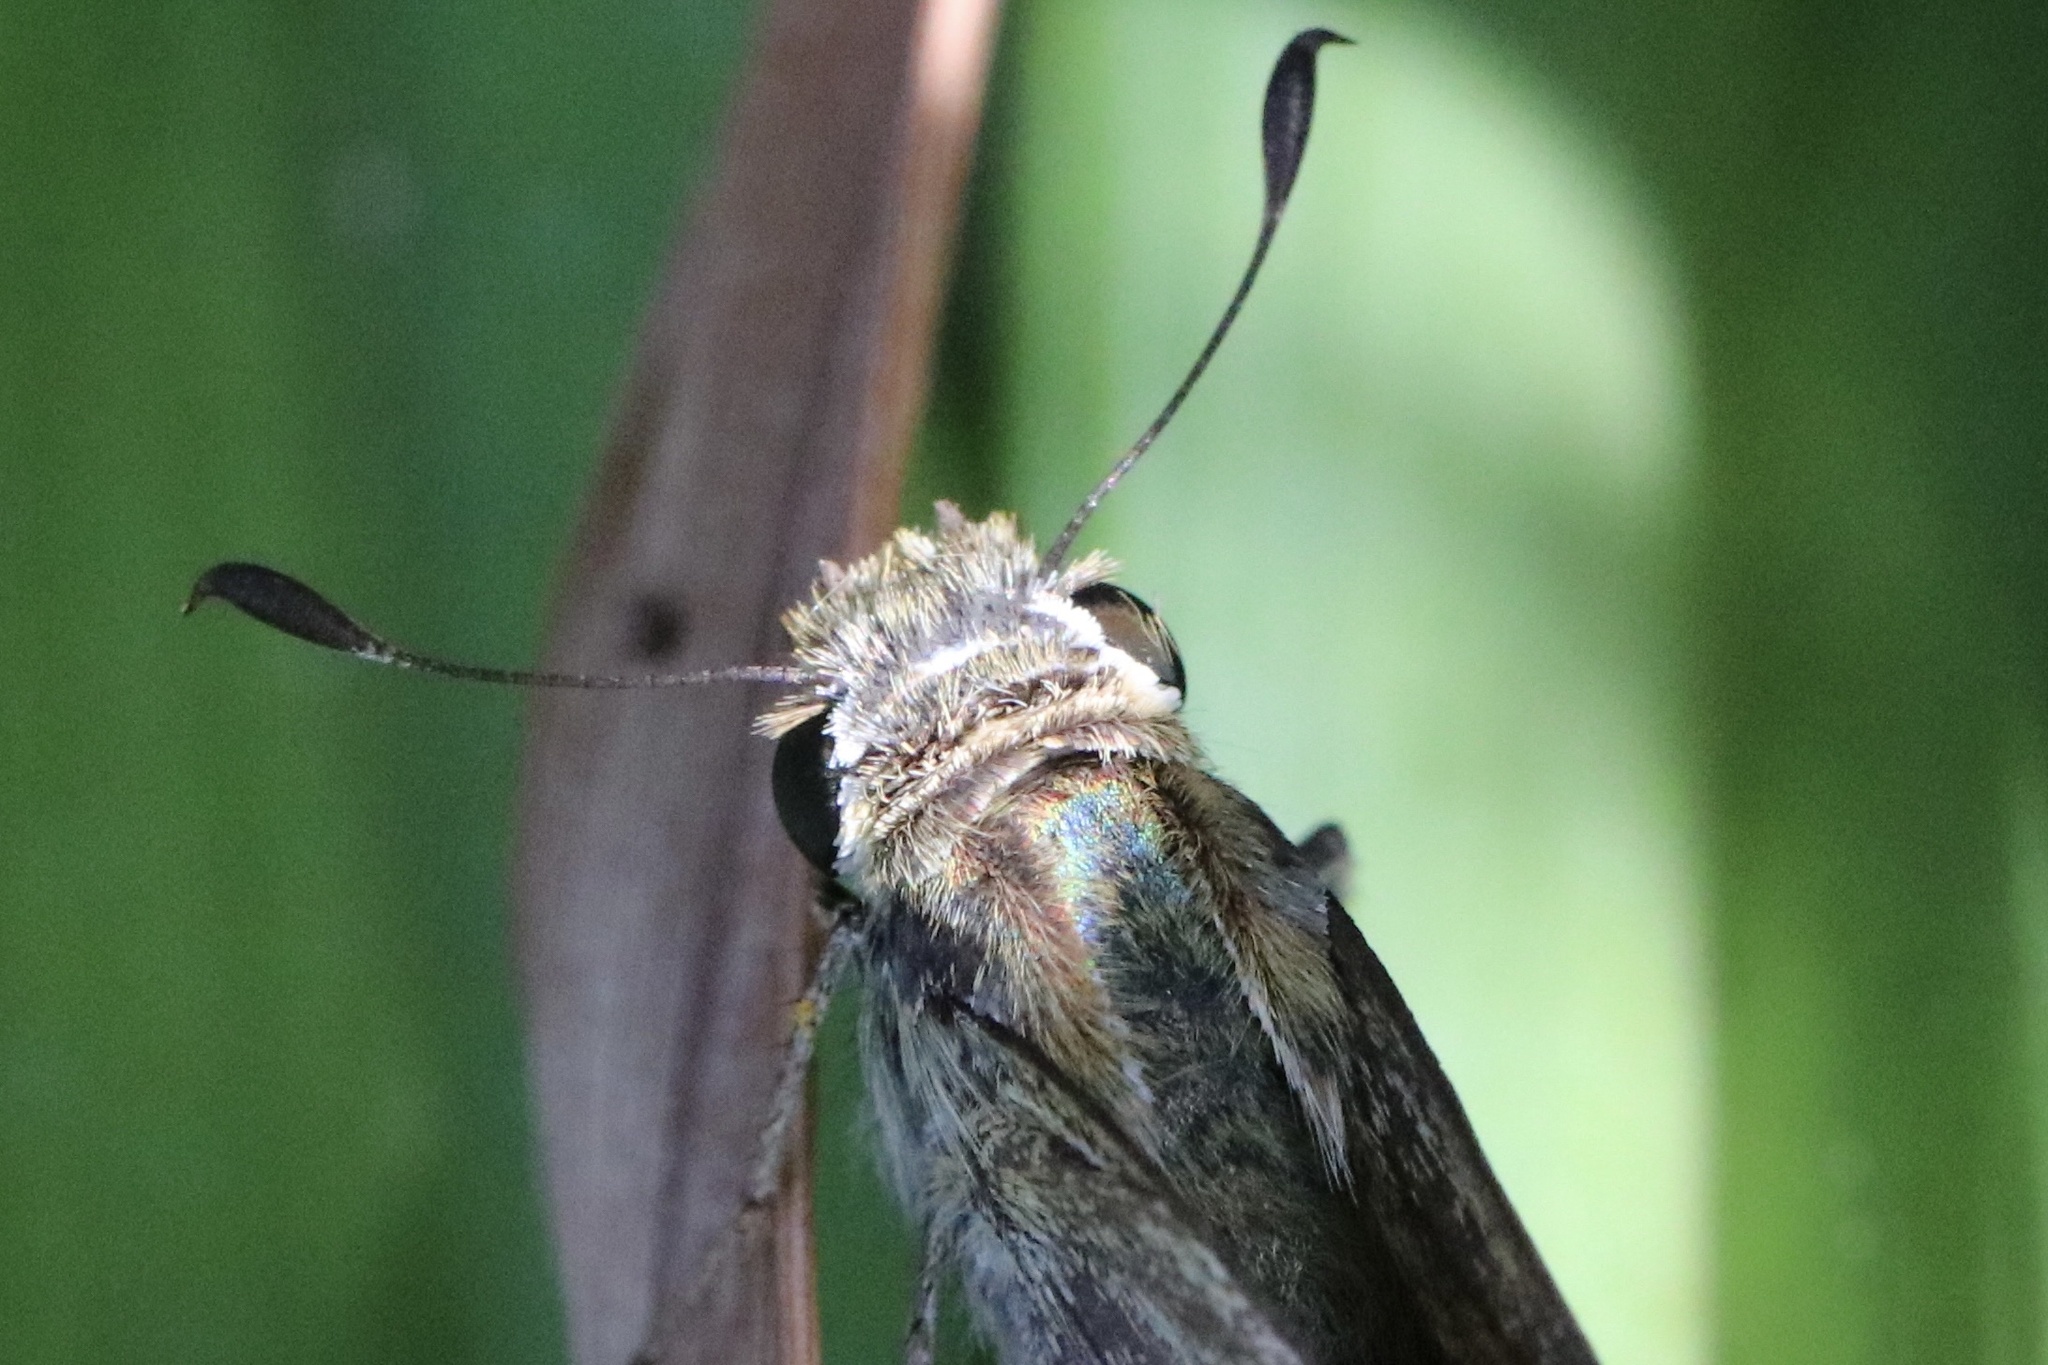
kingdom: Animalia
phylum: Arthropoda
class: Insecta
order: Lepidoptera
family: Hesperiidae
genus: Atalopedes
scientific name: Atalopedes
